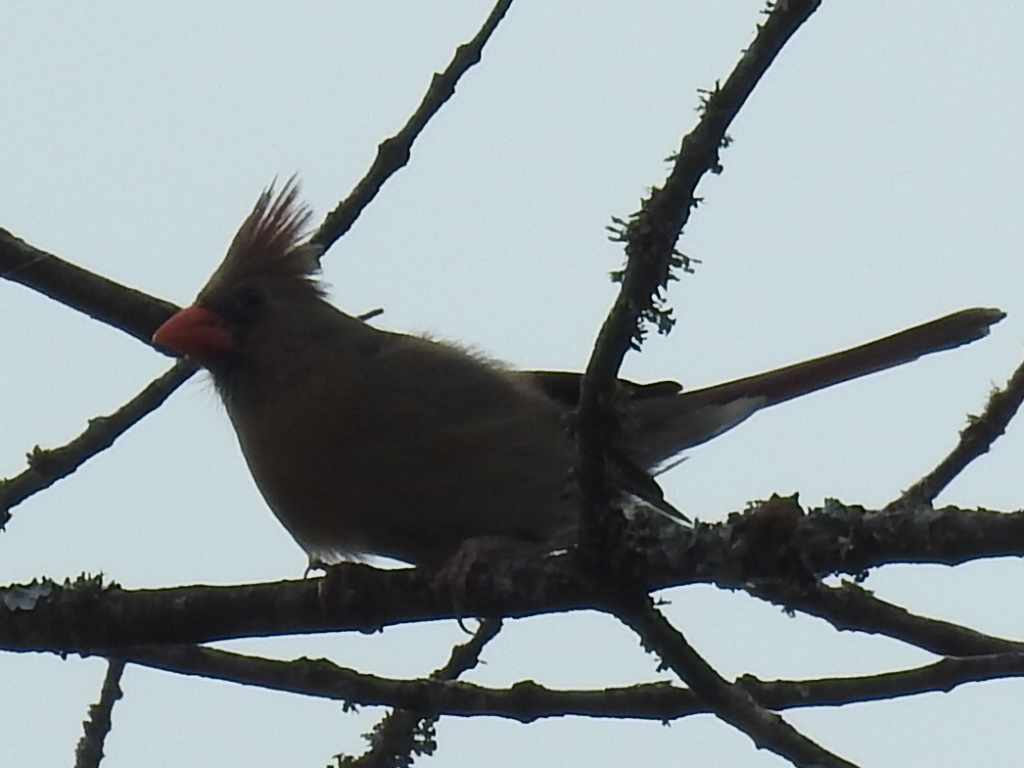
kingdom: Animalia
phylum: Chordata
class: Aves
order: Passeriformes
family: Cardinalidae
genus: Cardinalis
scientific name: Cardinalis cardinalis
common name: Northern cardinal
